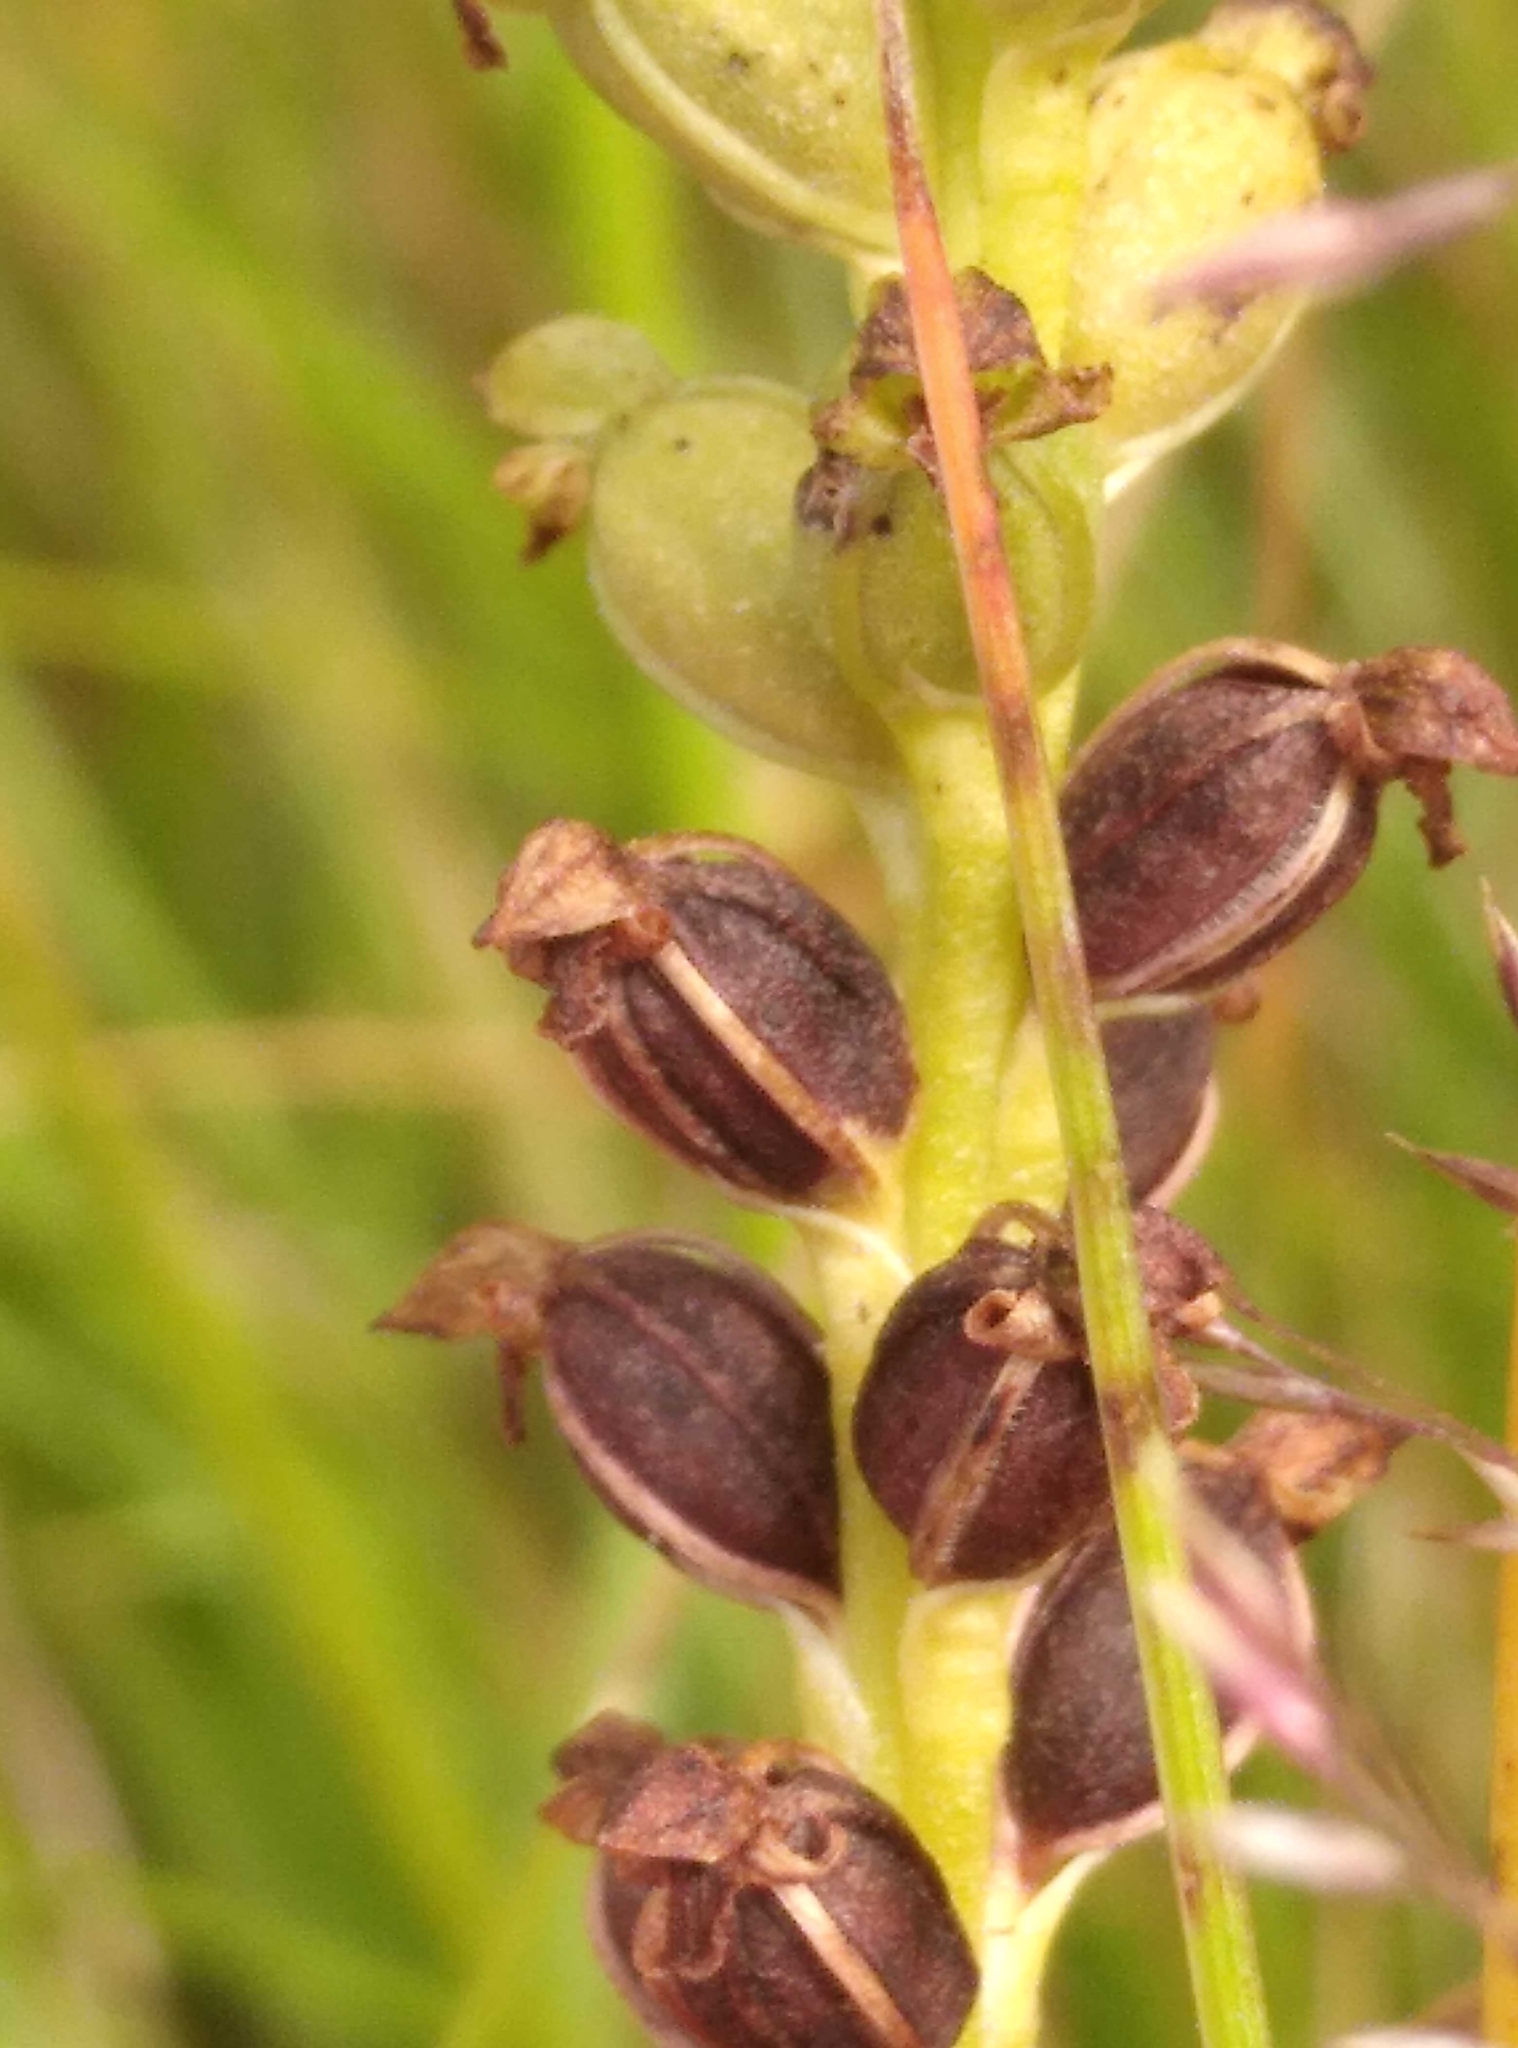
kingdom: Plantae
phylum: Tracheophyta
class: Liliopsida
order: Asparagales
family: Orchidaceae
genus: Microtis
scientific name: Microtis unifolia
